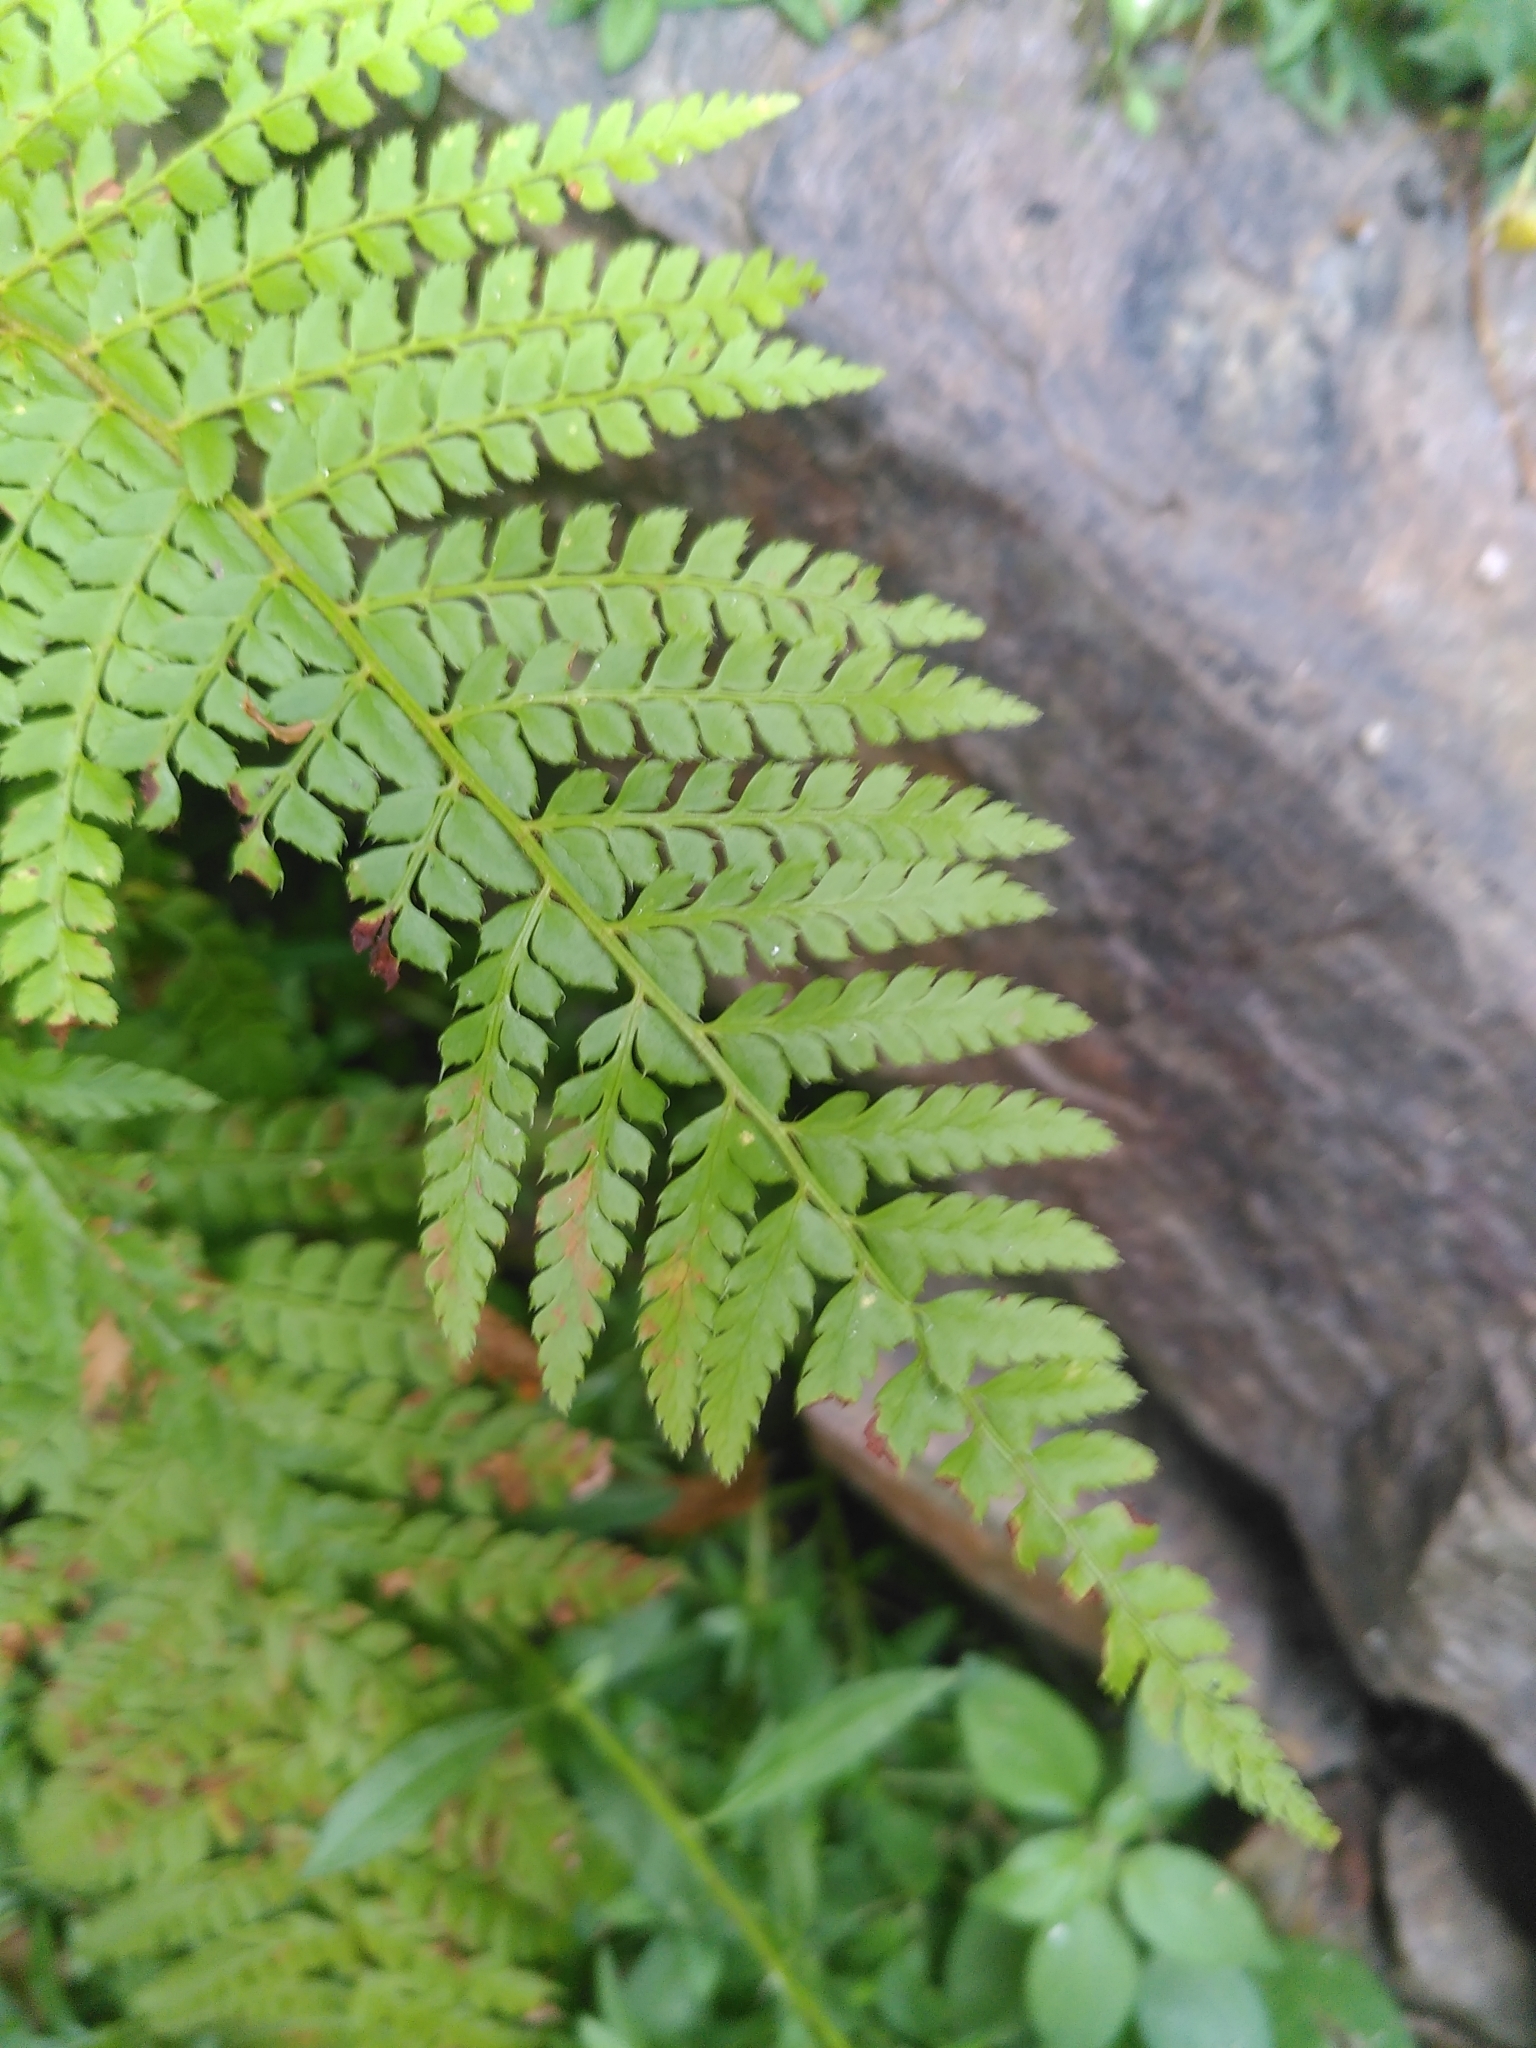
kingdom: Plantae
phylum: Tracheophyta
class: Polypodiopsida
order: Polypodiales
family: Dryopteridaceae
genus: Polystichum
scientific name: Polystichum setiferum
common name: Soft shield-fern
